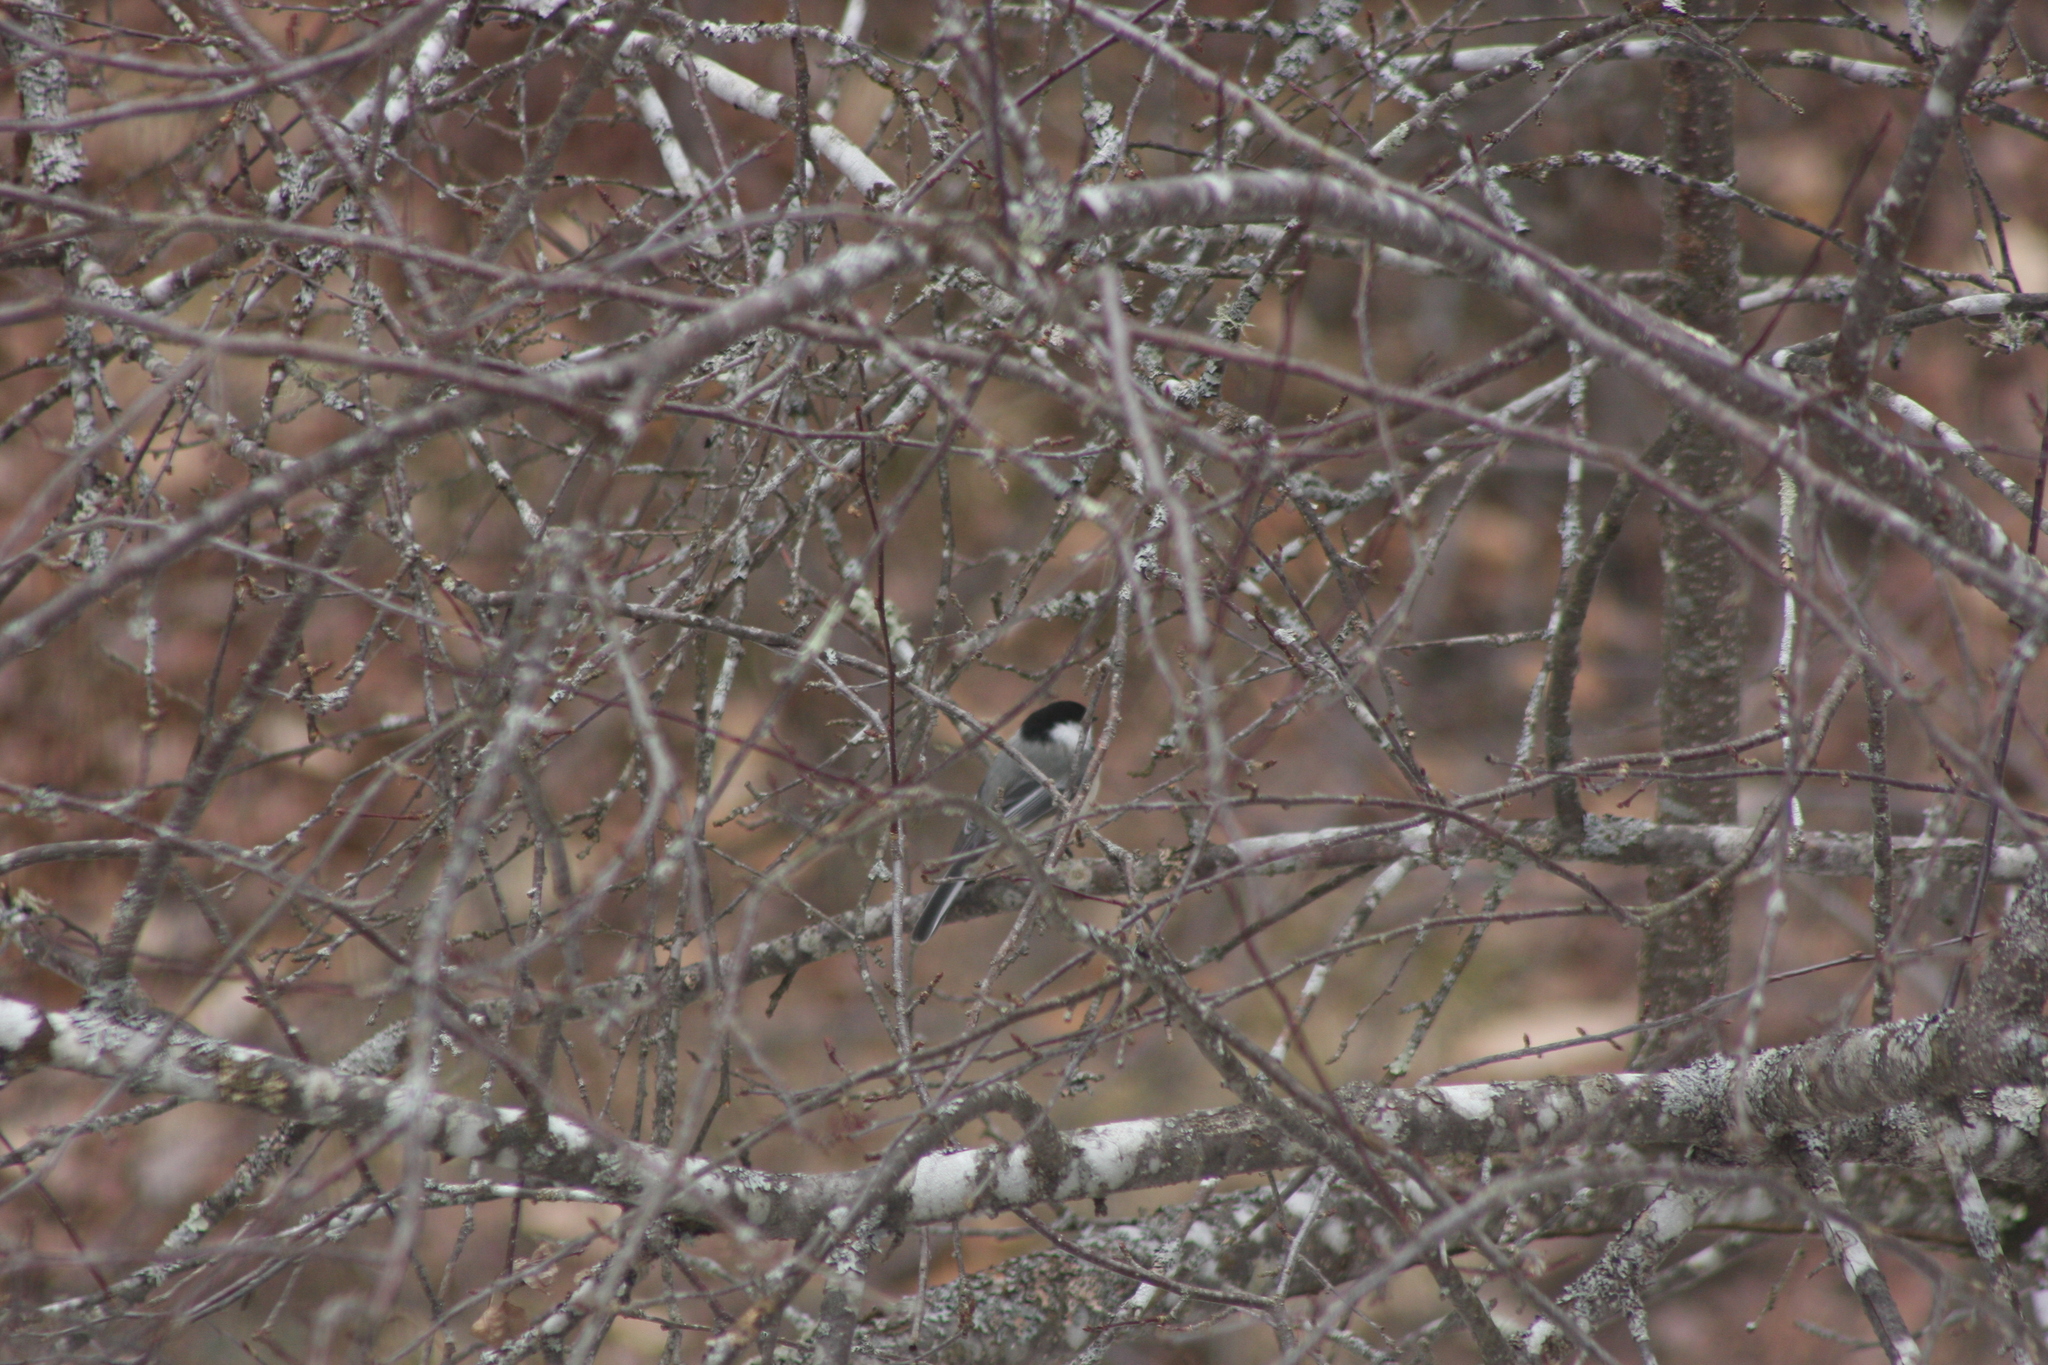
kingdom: Animalia
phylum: Chordata
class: Aves
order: Passeriformes
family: Paridae
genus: Poecile
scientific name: Poecile atricapillus
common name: Black-capped chickadee
